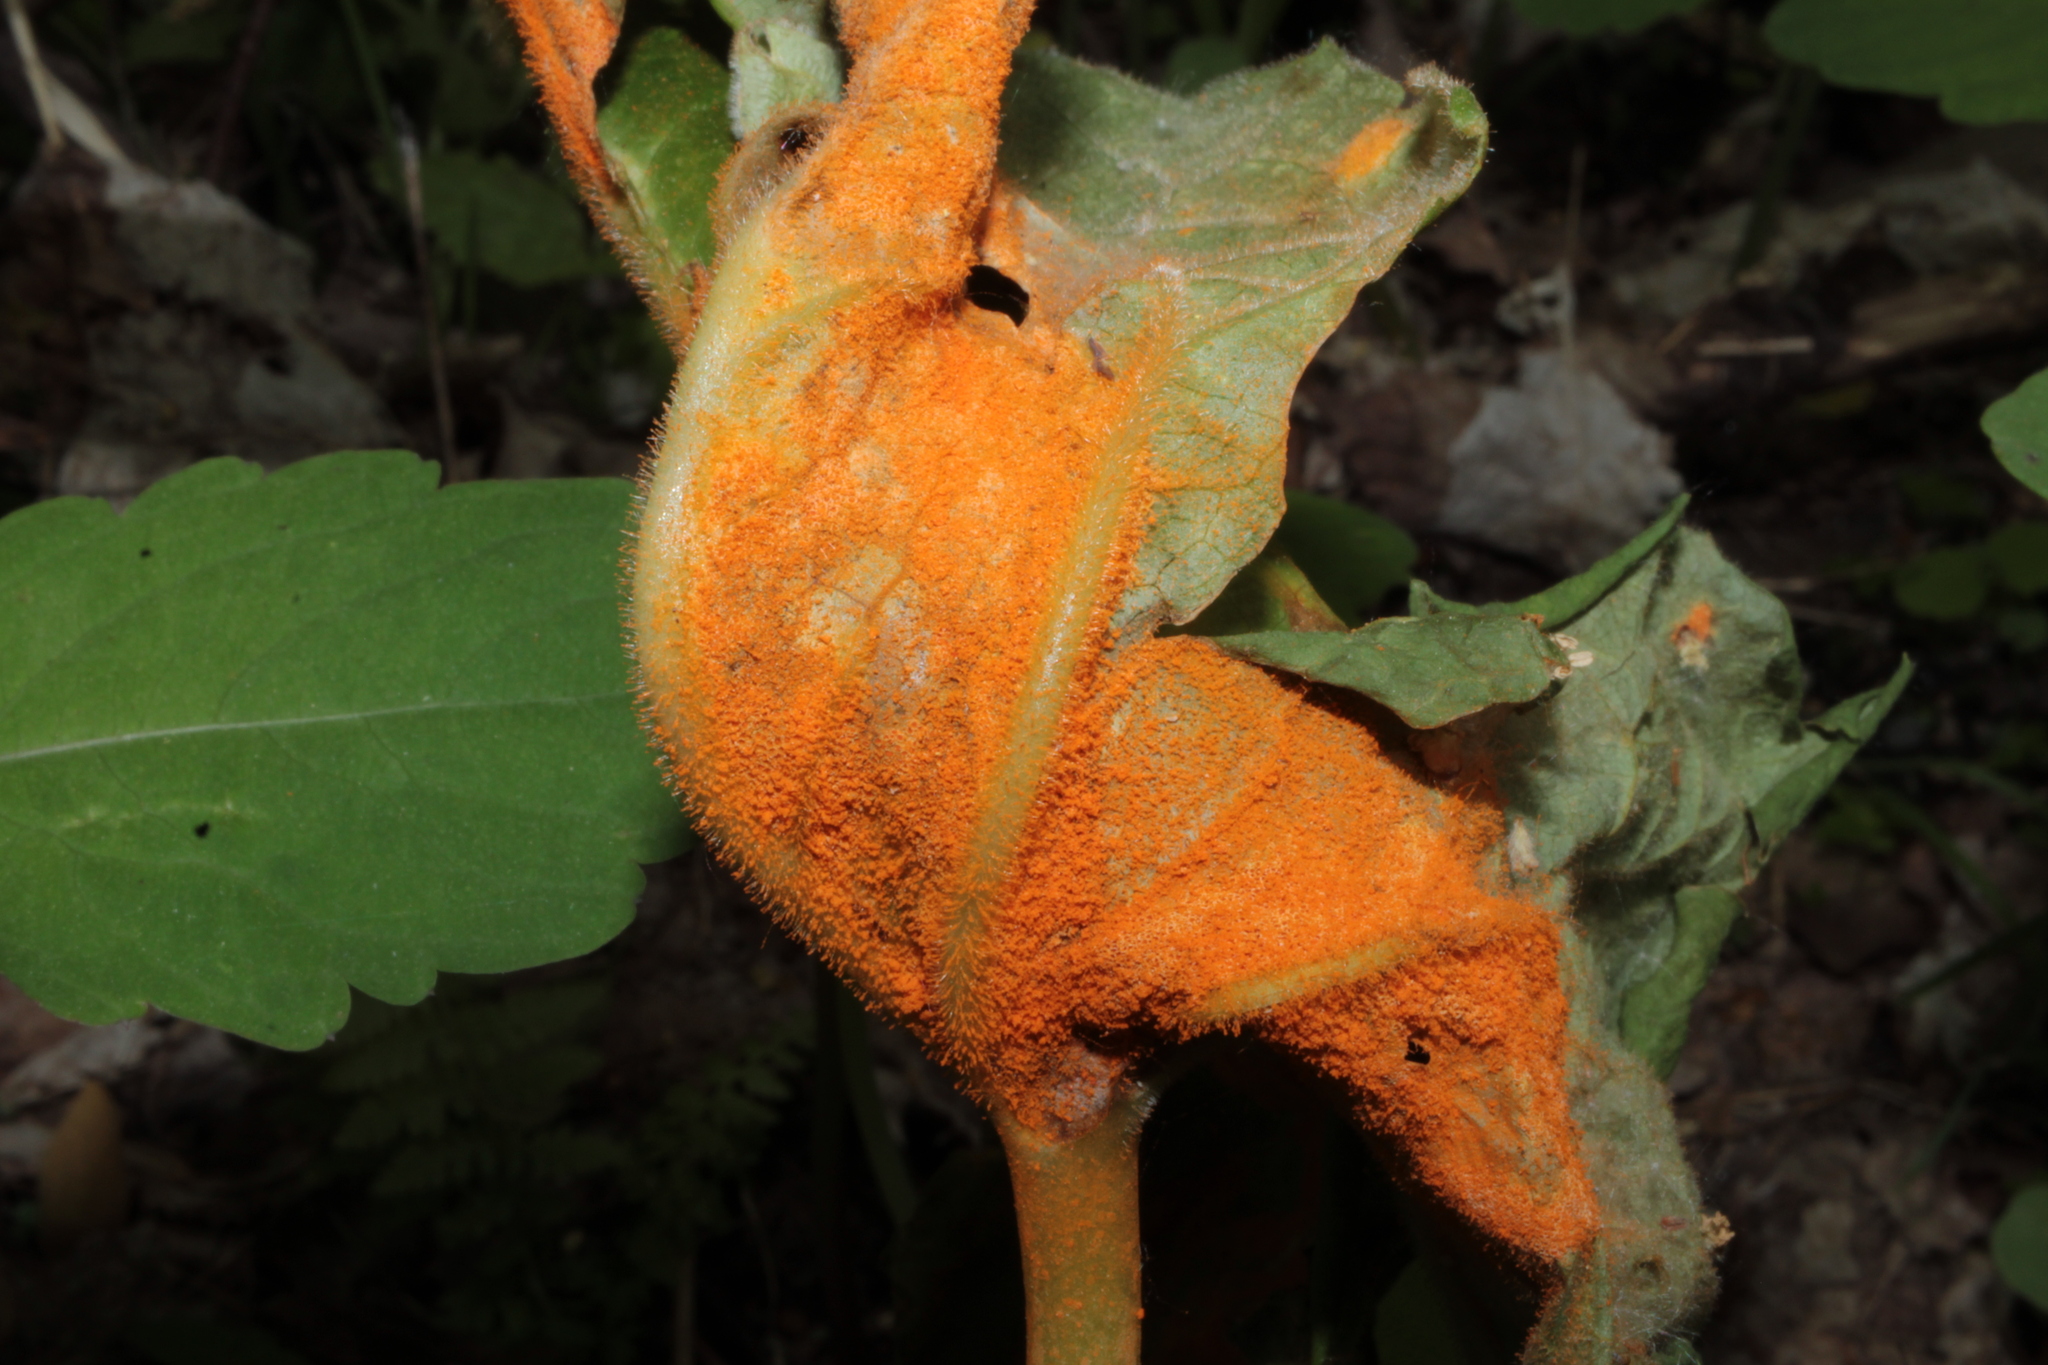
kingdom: Fungi
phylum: Basidiomycota
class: Pucciniomycetes
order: Pucciniales
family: Pucciniaceae
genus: Puccinia
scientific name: Puccinia podophylli
